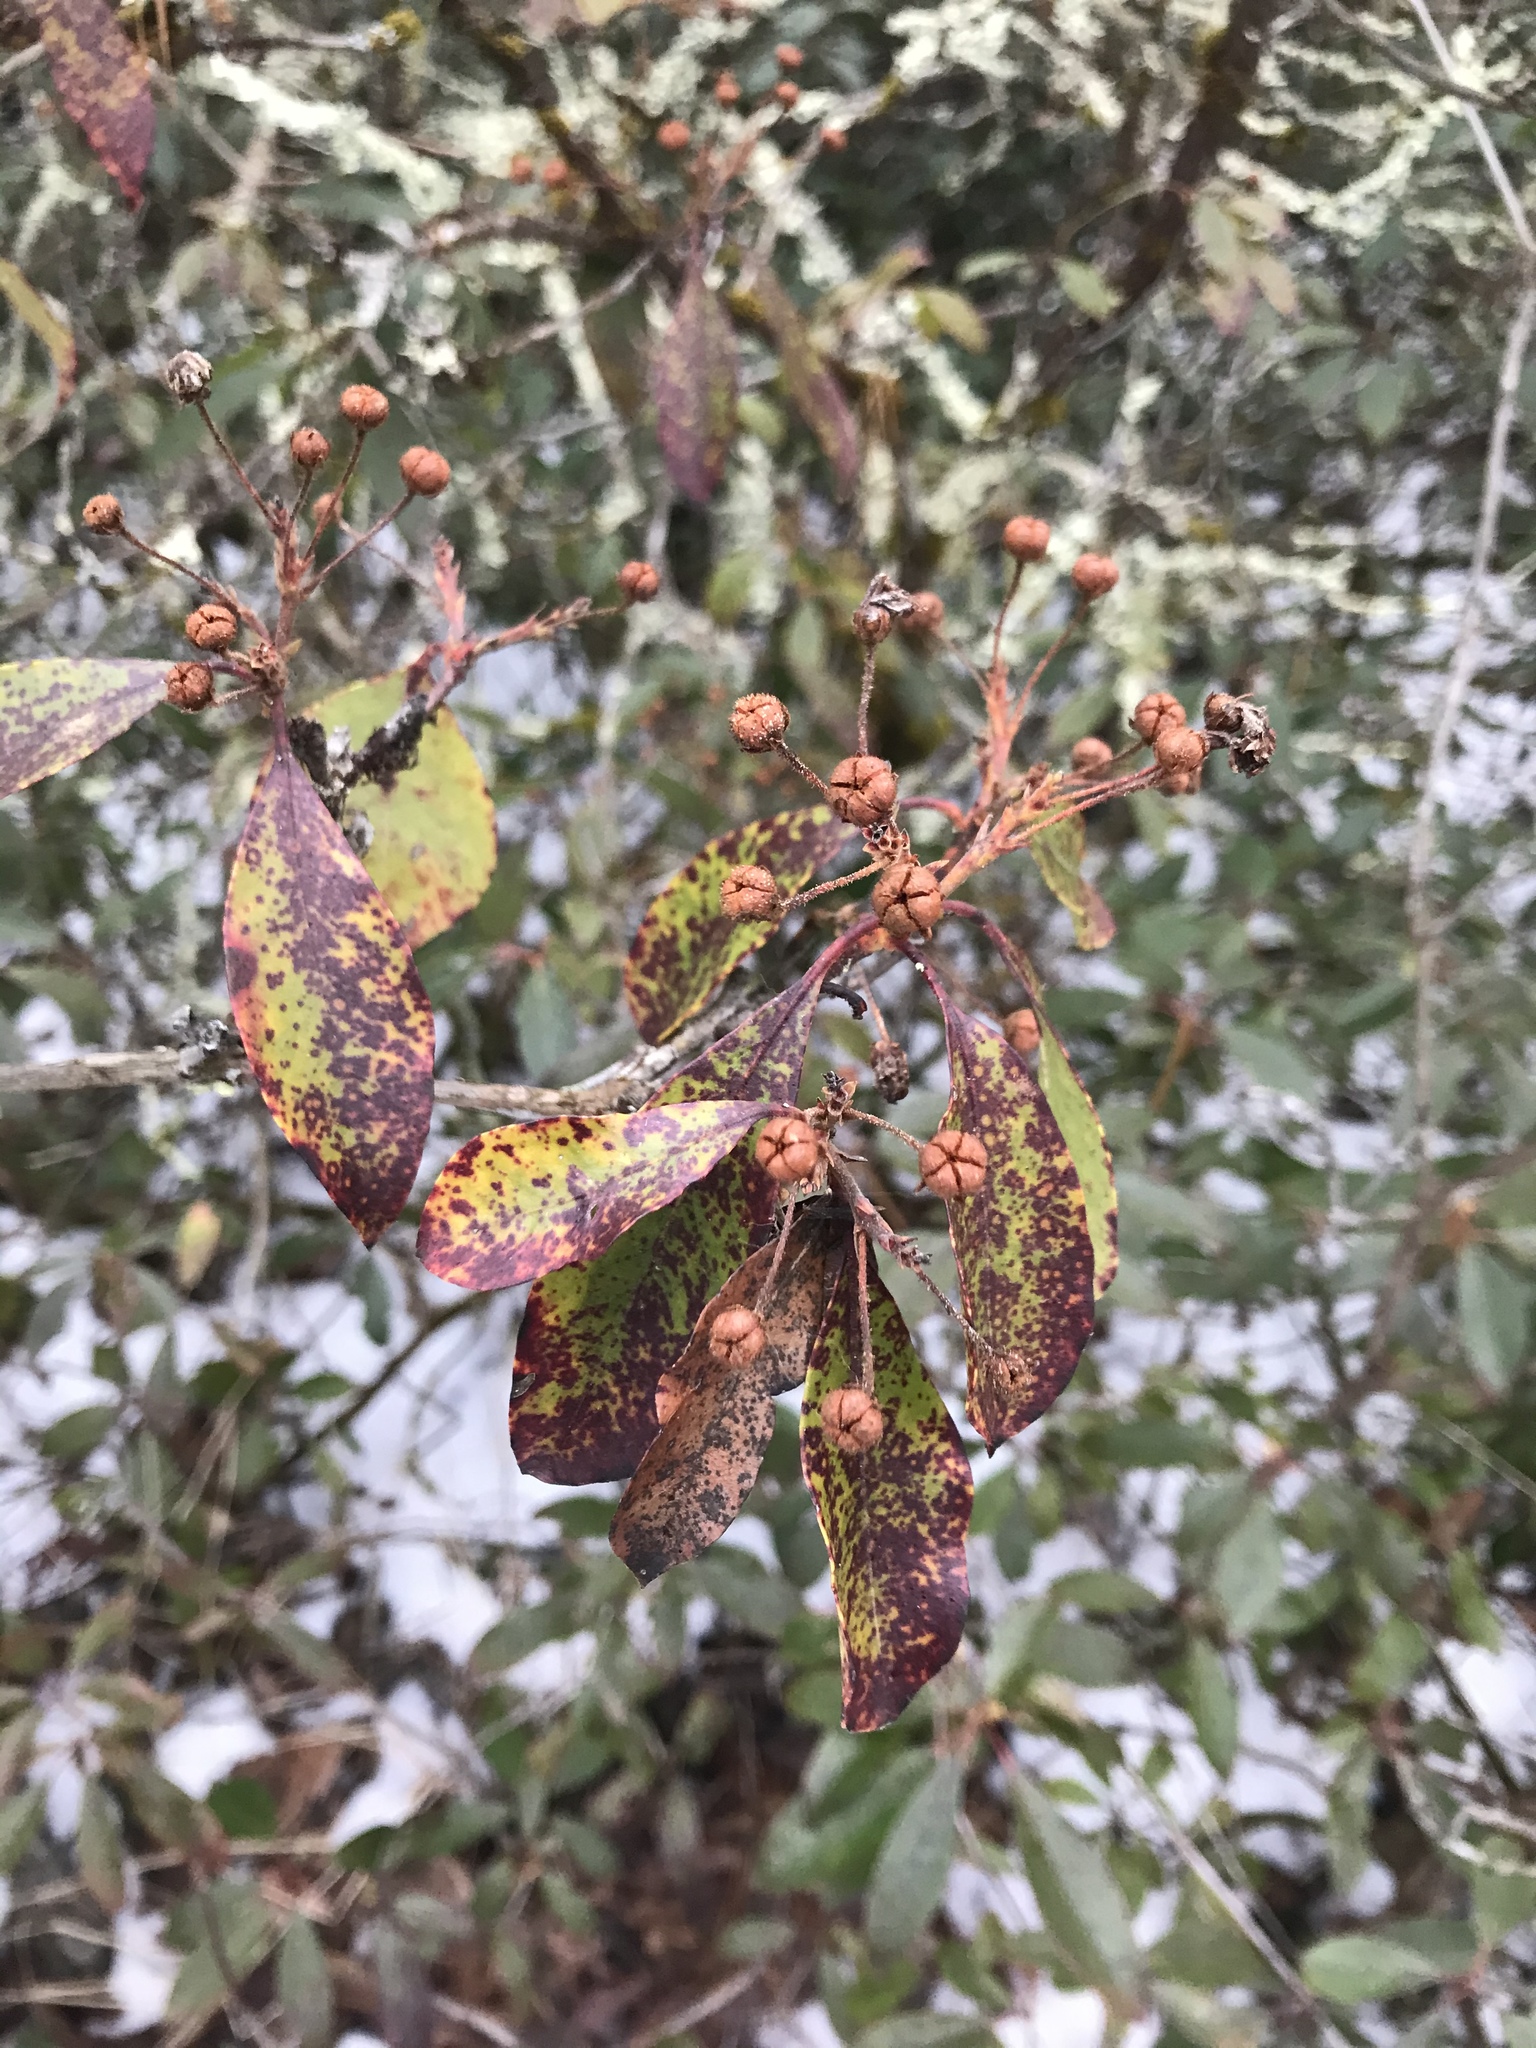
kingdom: Plantae
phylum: Tracheophyta
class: Magnoliopsida
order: Ericales
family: Ericaceae
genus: Kalmia
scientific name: Kalmia latifolia
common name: Mountain-laurel
